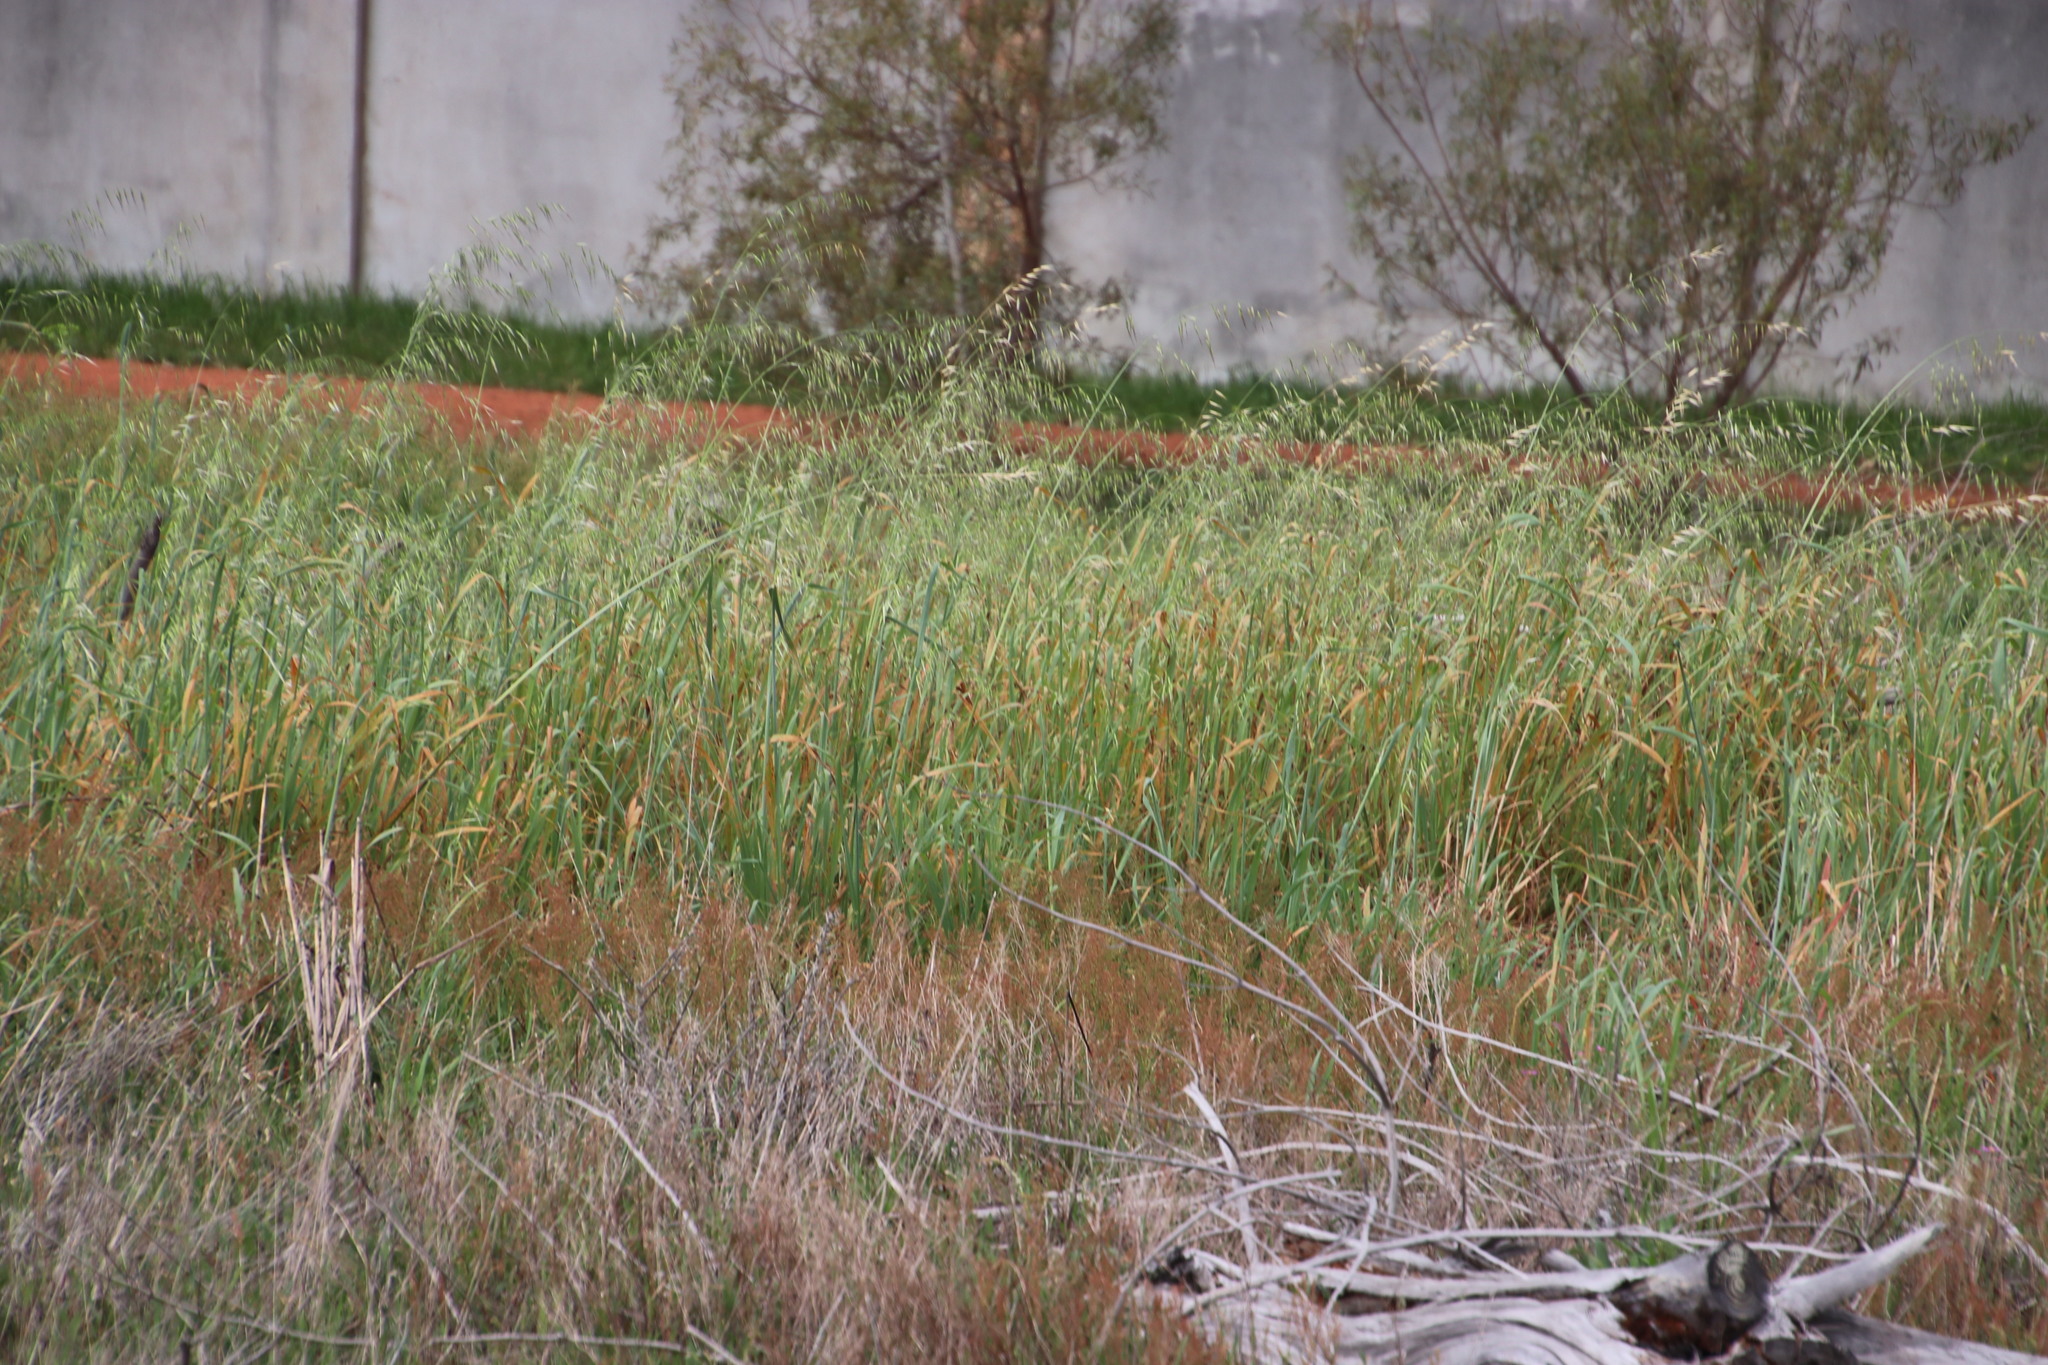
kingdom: Plantae
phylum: Tracheophyta
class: Liliopsida
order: Poales
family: Poaceae
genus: Avena
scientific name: Avena fatua
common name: Wild oat
